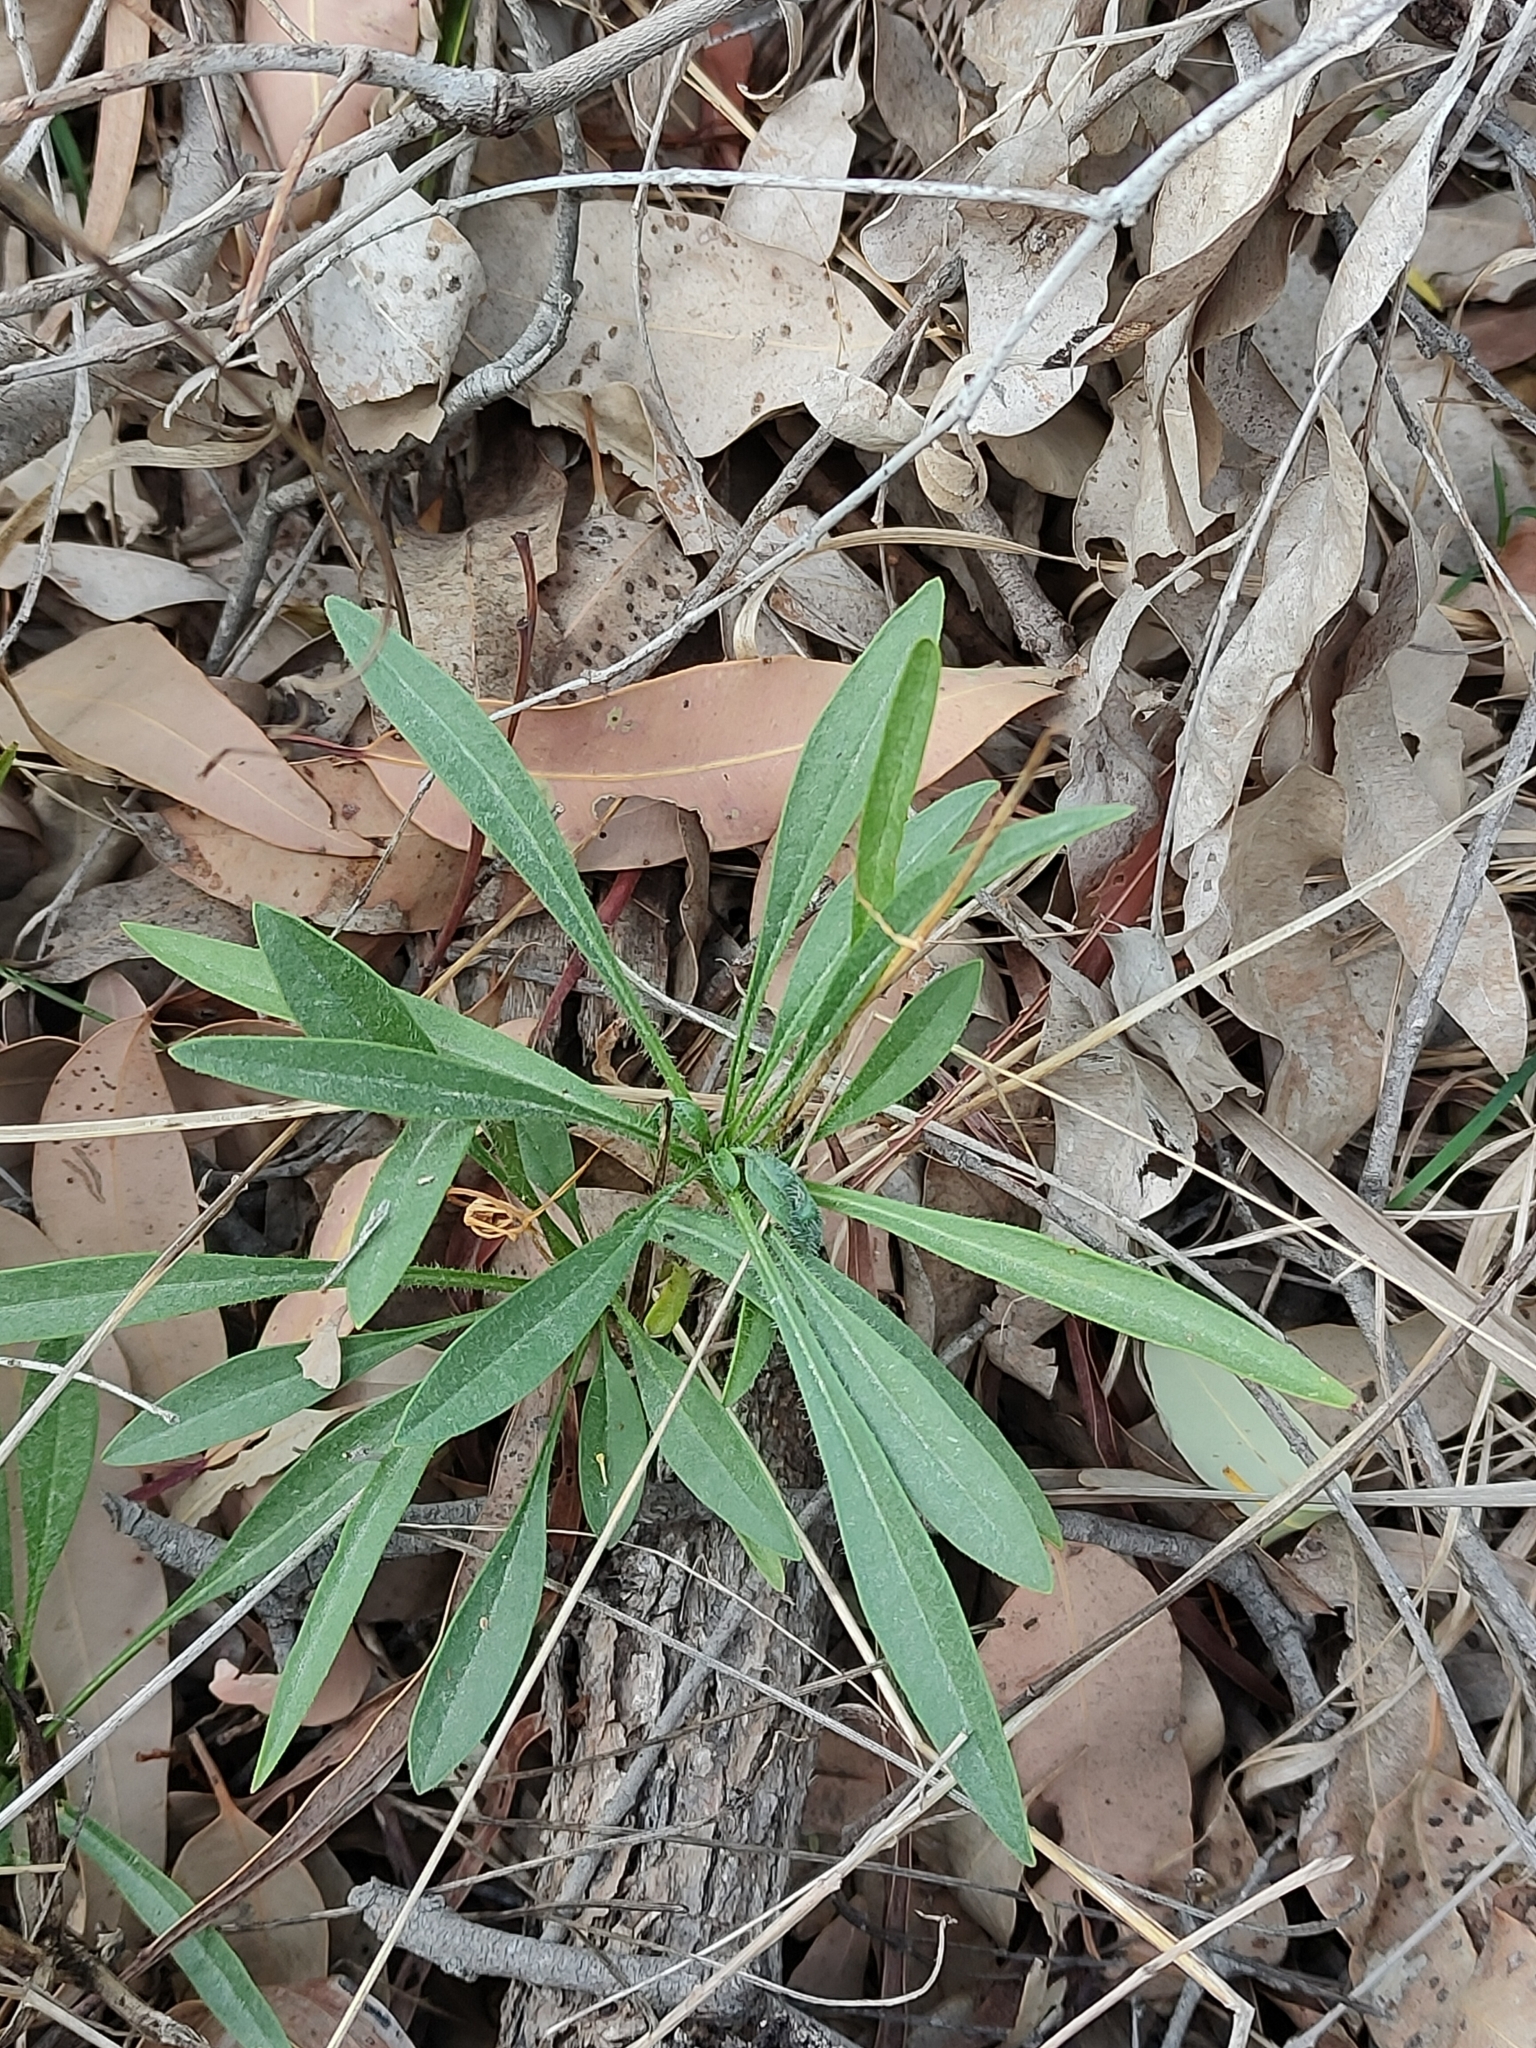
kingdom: Plantae
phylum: Tracheophyta
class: Magnoliopsida
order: Asterales
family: Asteraceae
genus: Coreopsis
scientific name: Coreopsis lanceolata
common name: Garden coreopsis
